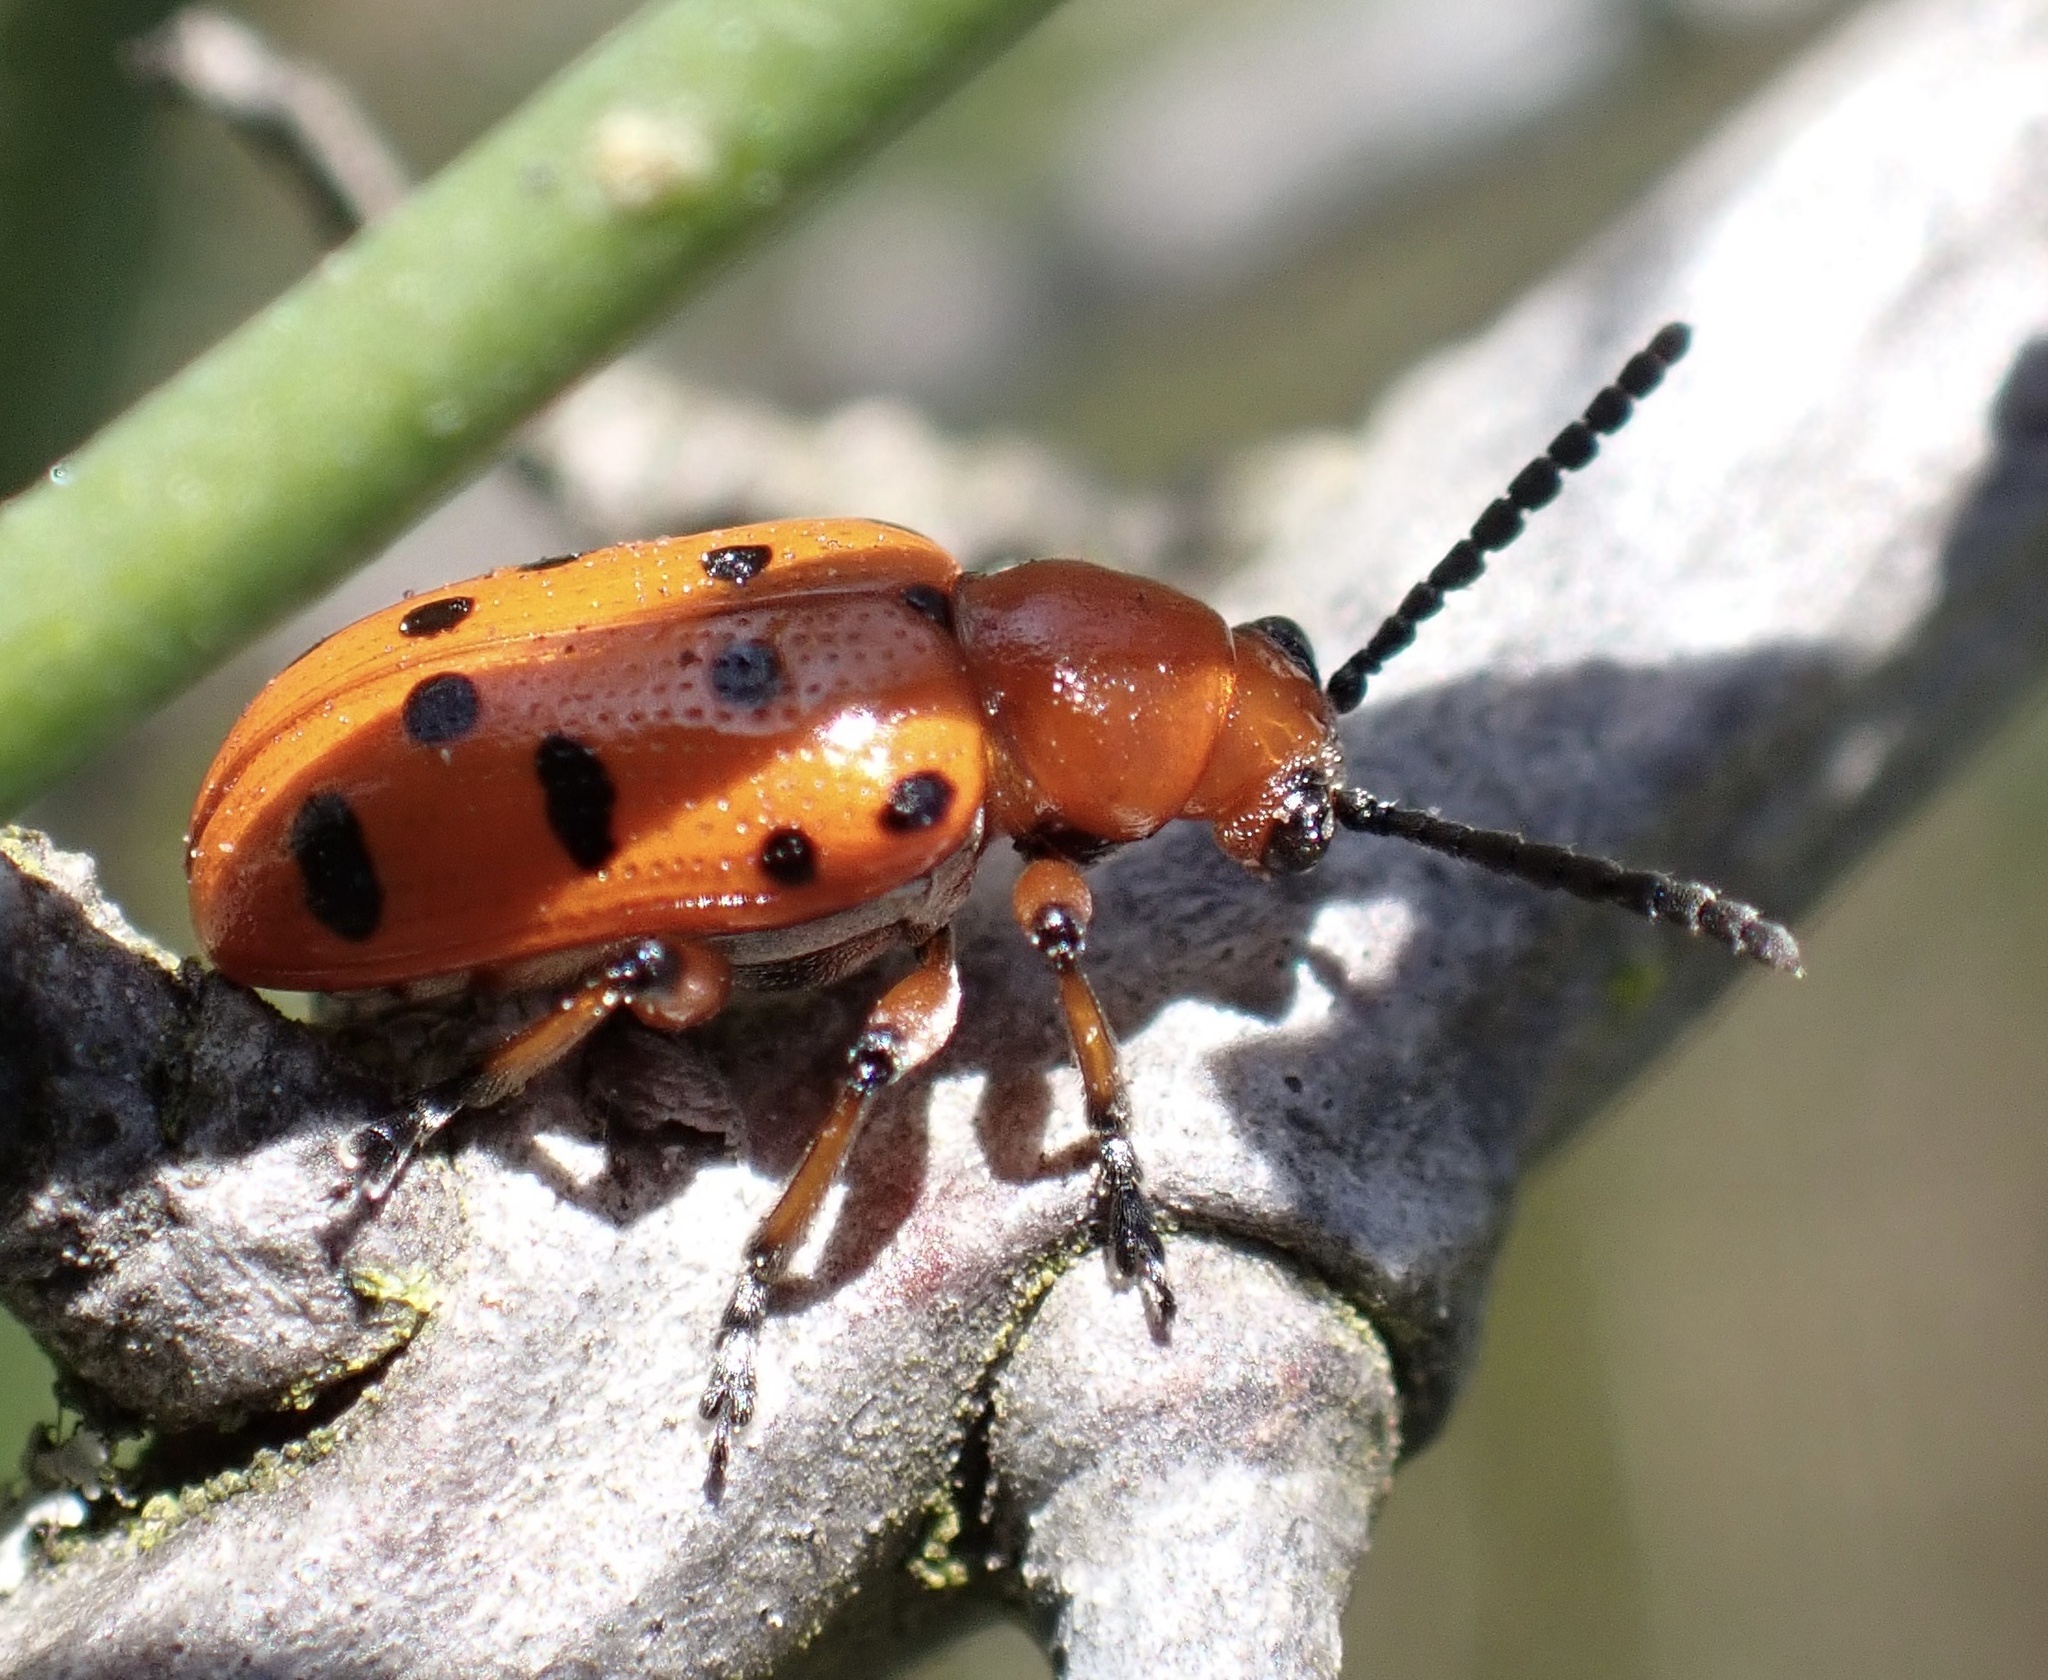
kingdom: Animalia
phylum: Arthropoda
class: Insecta
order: Coleoptera
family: Chrysomelidae
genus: Crioceris
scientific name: Crioceris duodecimpunctata
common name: Twelve-spotted asparagus beetle
